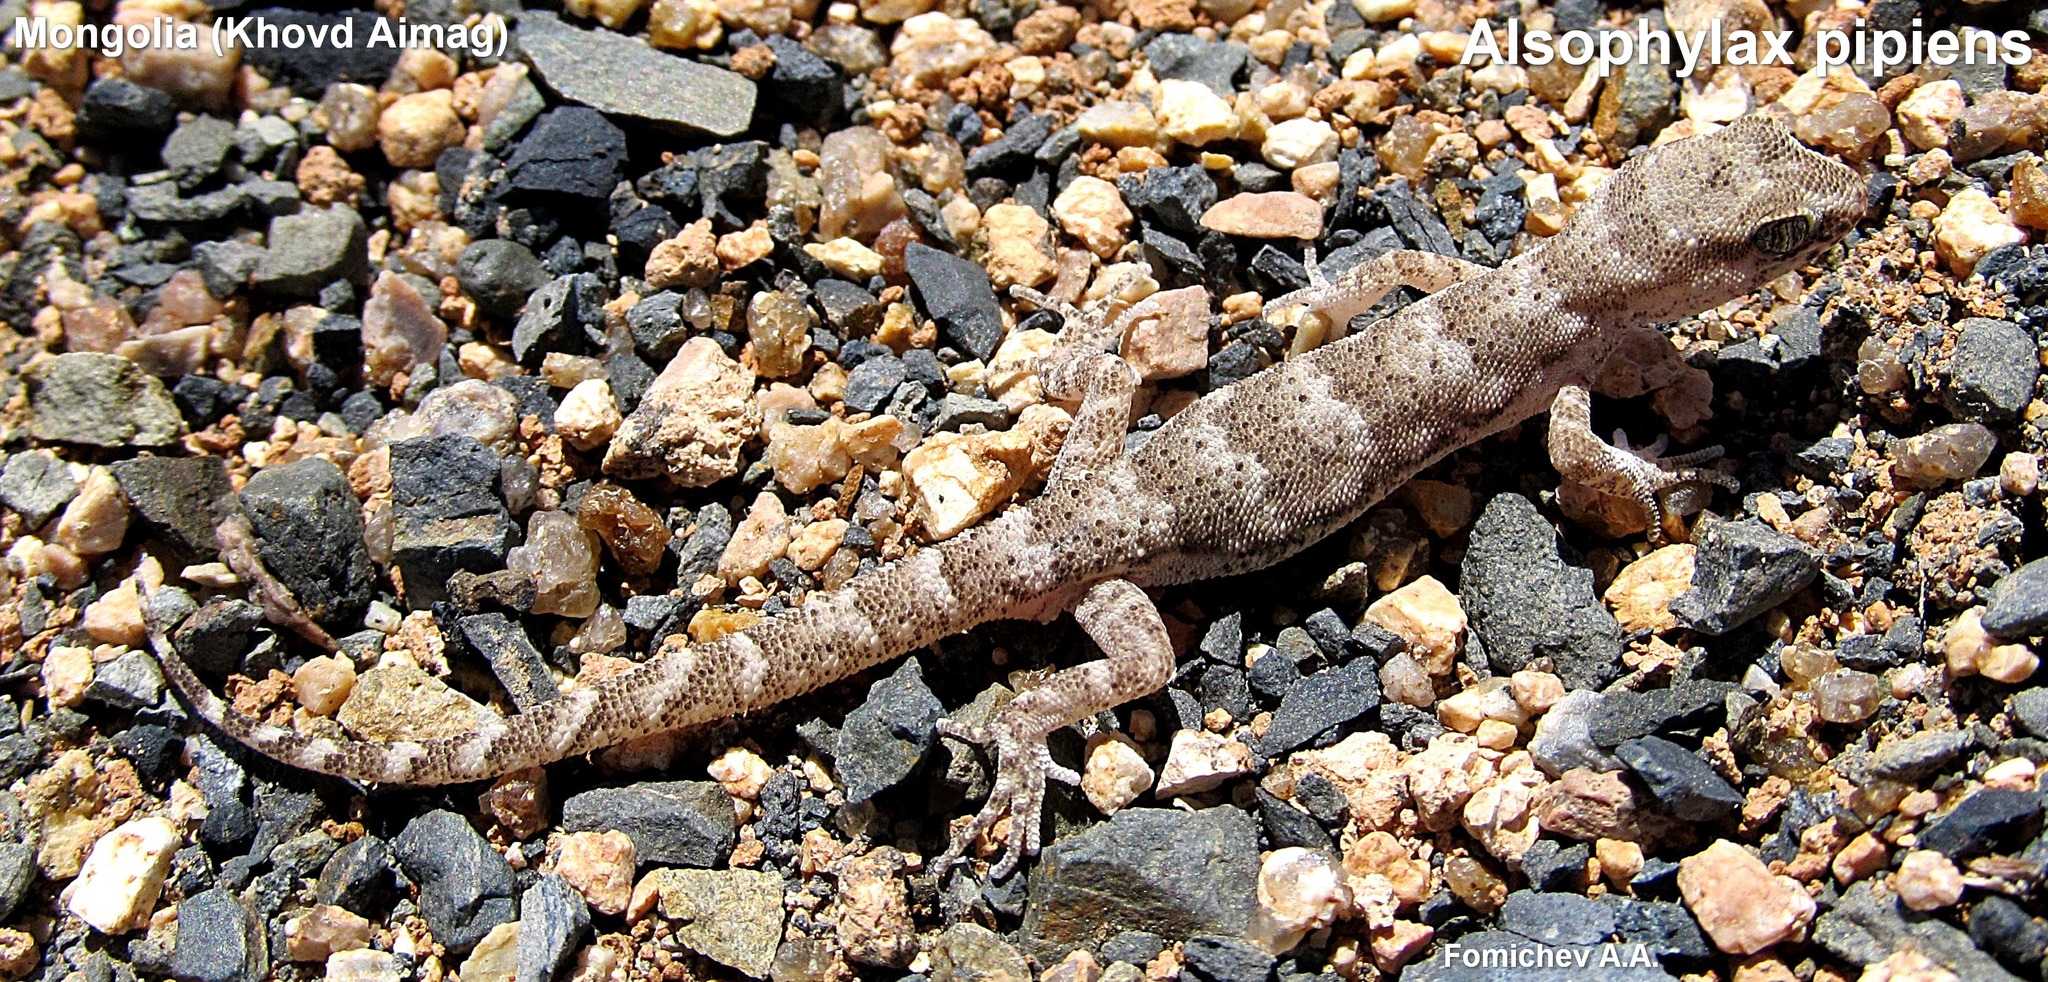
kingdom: Animalia
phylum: Chordata
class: Squamata
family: Gekkonidae
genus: Alsophylax
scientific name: Alsophylax pipiens
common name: Even-fingered gecko
